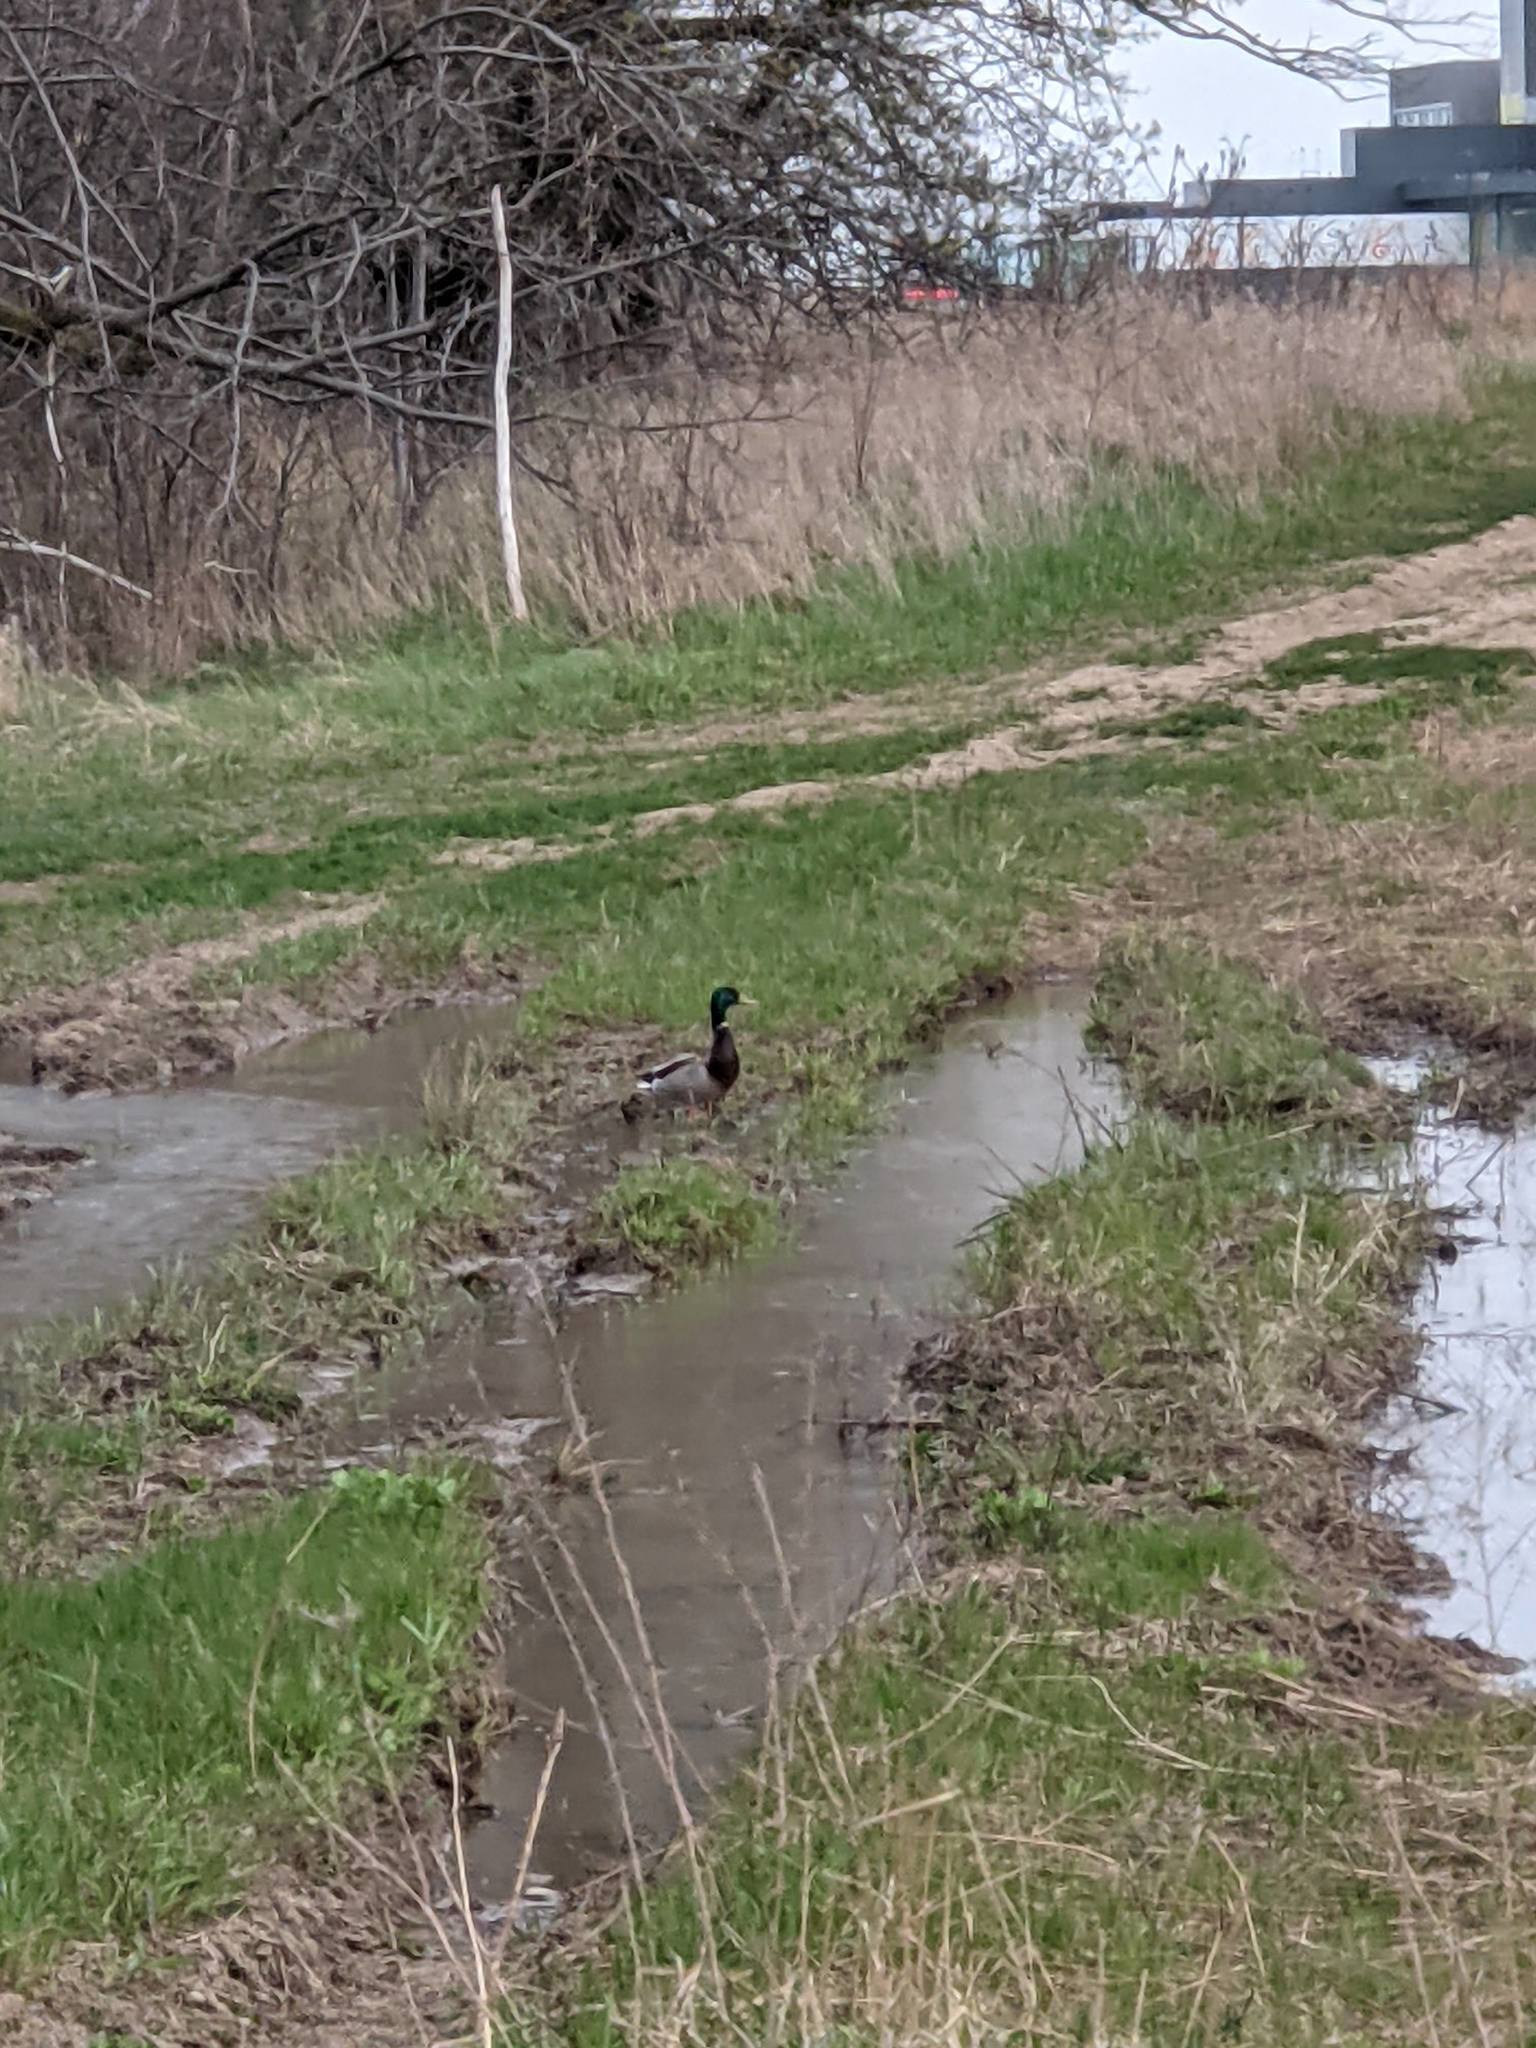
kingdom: Animalia
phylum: Chordata
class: Aves
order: Anseriformes
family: Anatidae
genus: Anas
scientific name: Anas platyrhynchos
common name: Mallard
